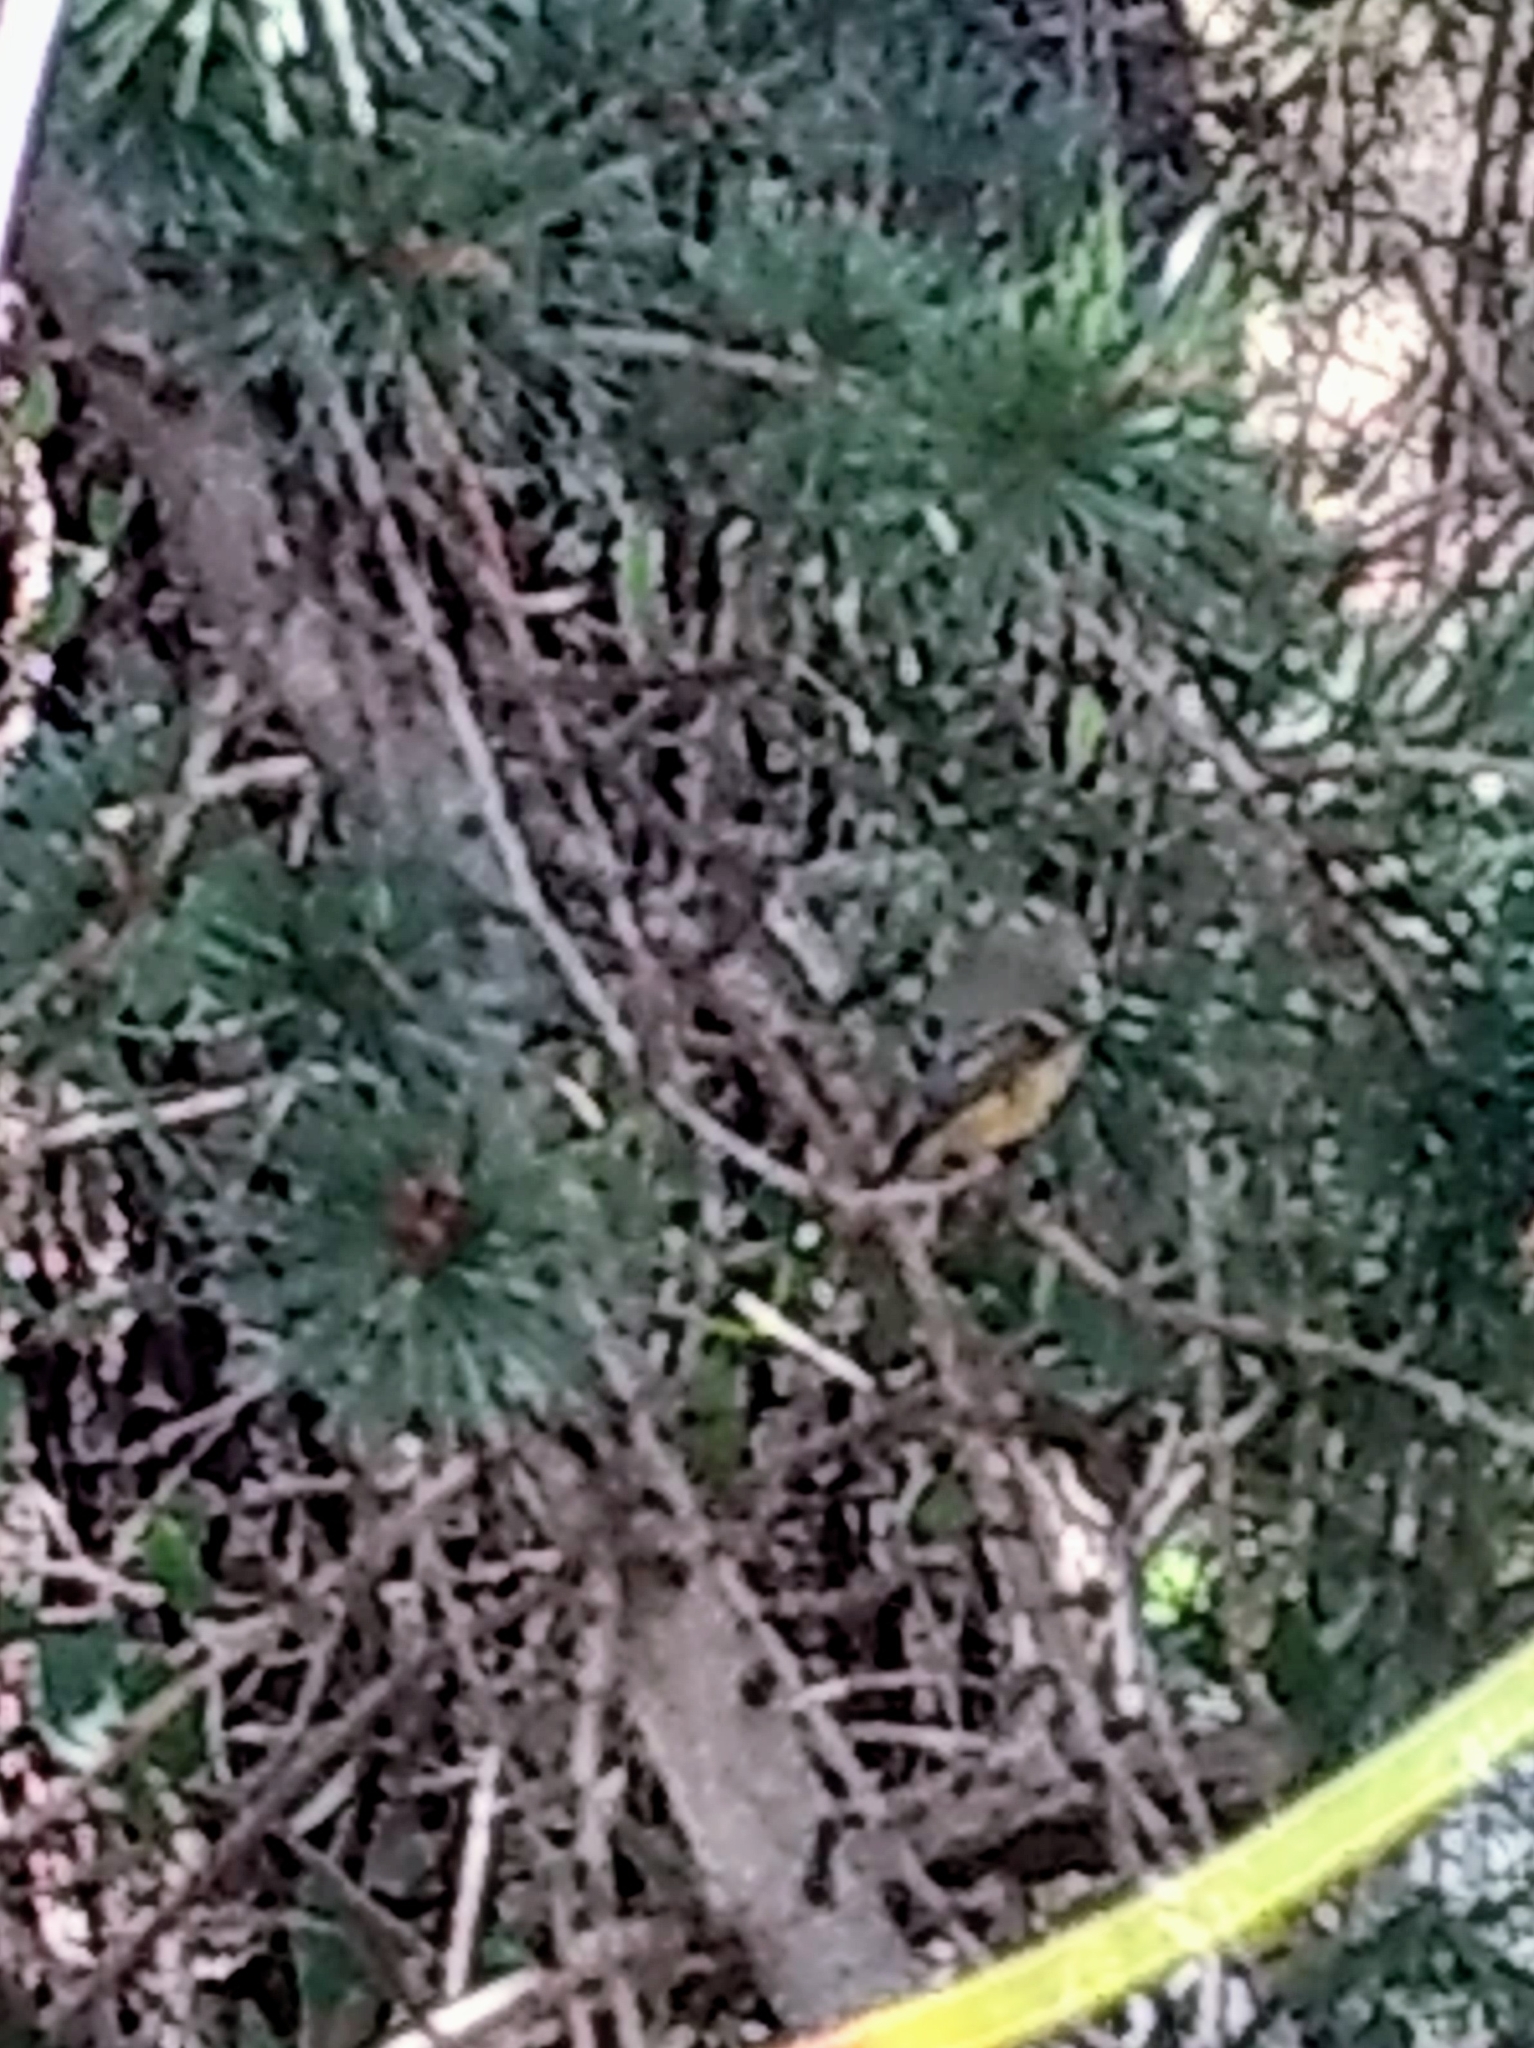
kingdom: Animalia
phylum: Chordata
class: Aves
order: Passeriformes
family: Regulidae
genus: Regulus
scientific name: Regulus calendula
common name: Ruby-crowned kinglet
